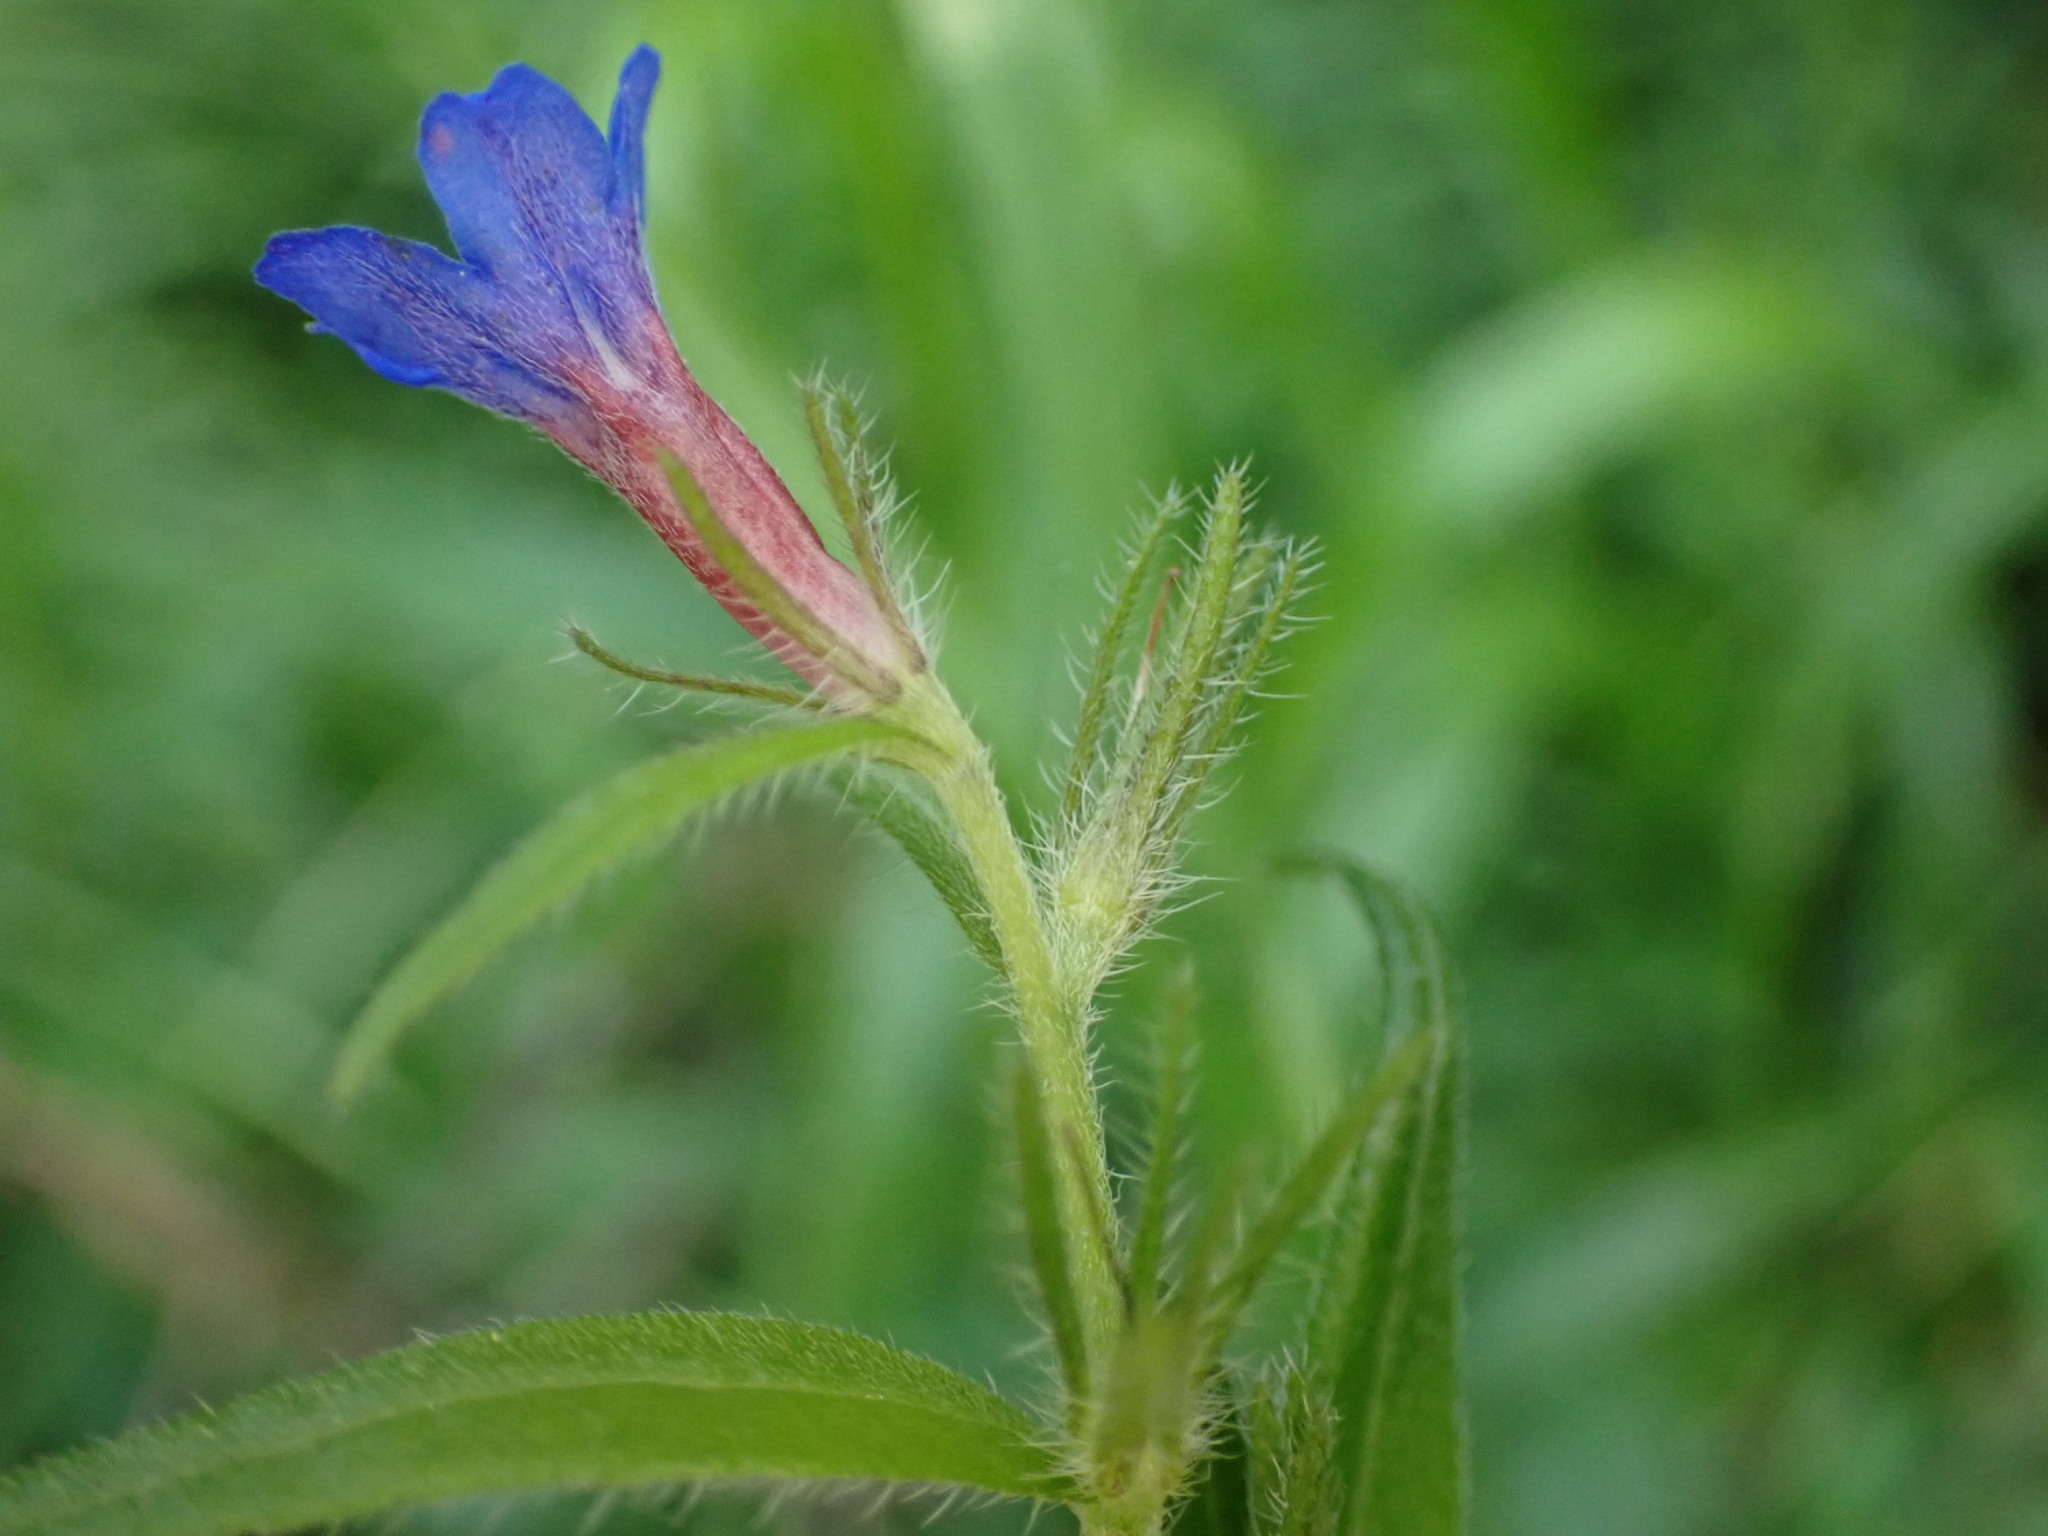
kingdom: Plantae
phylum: Tracheophyta
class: Magnoliopsida
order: Boraginales
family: Boraginaceae
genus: Aegonychon
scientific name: Aegonychon purpurocaeruleum
